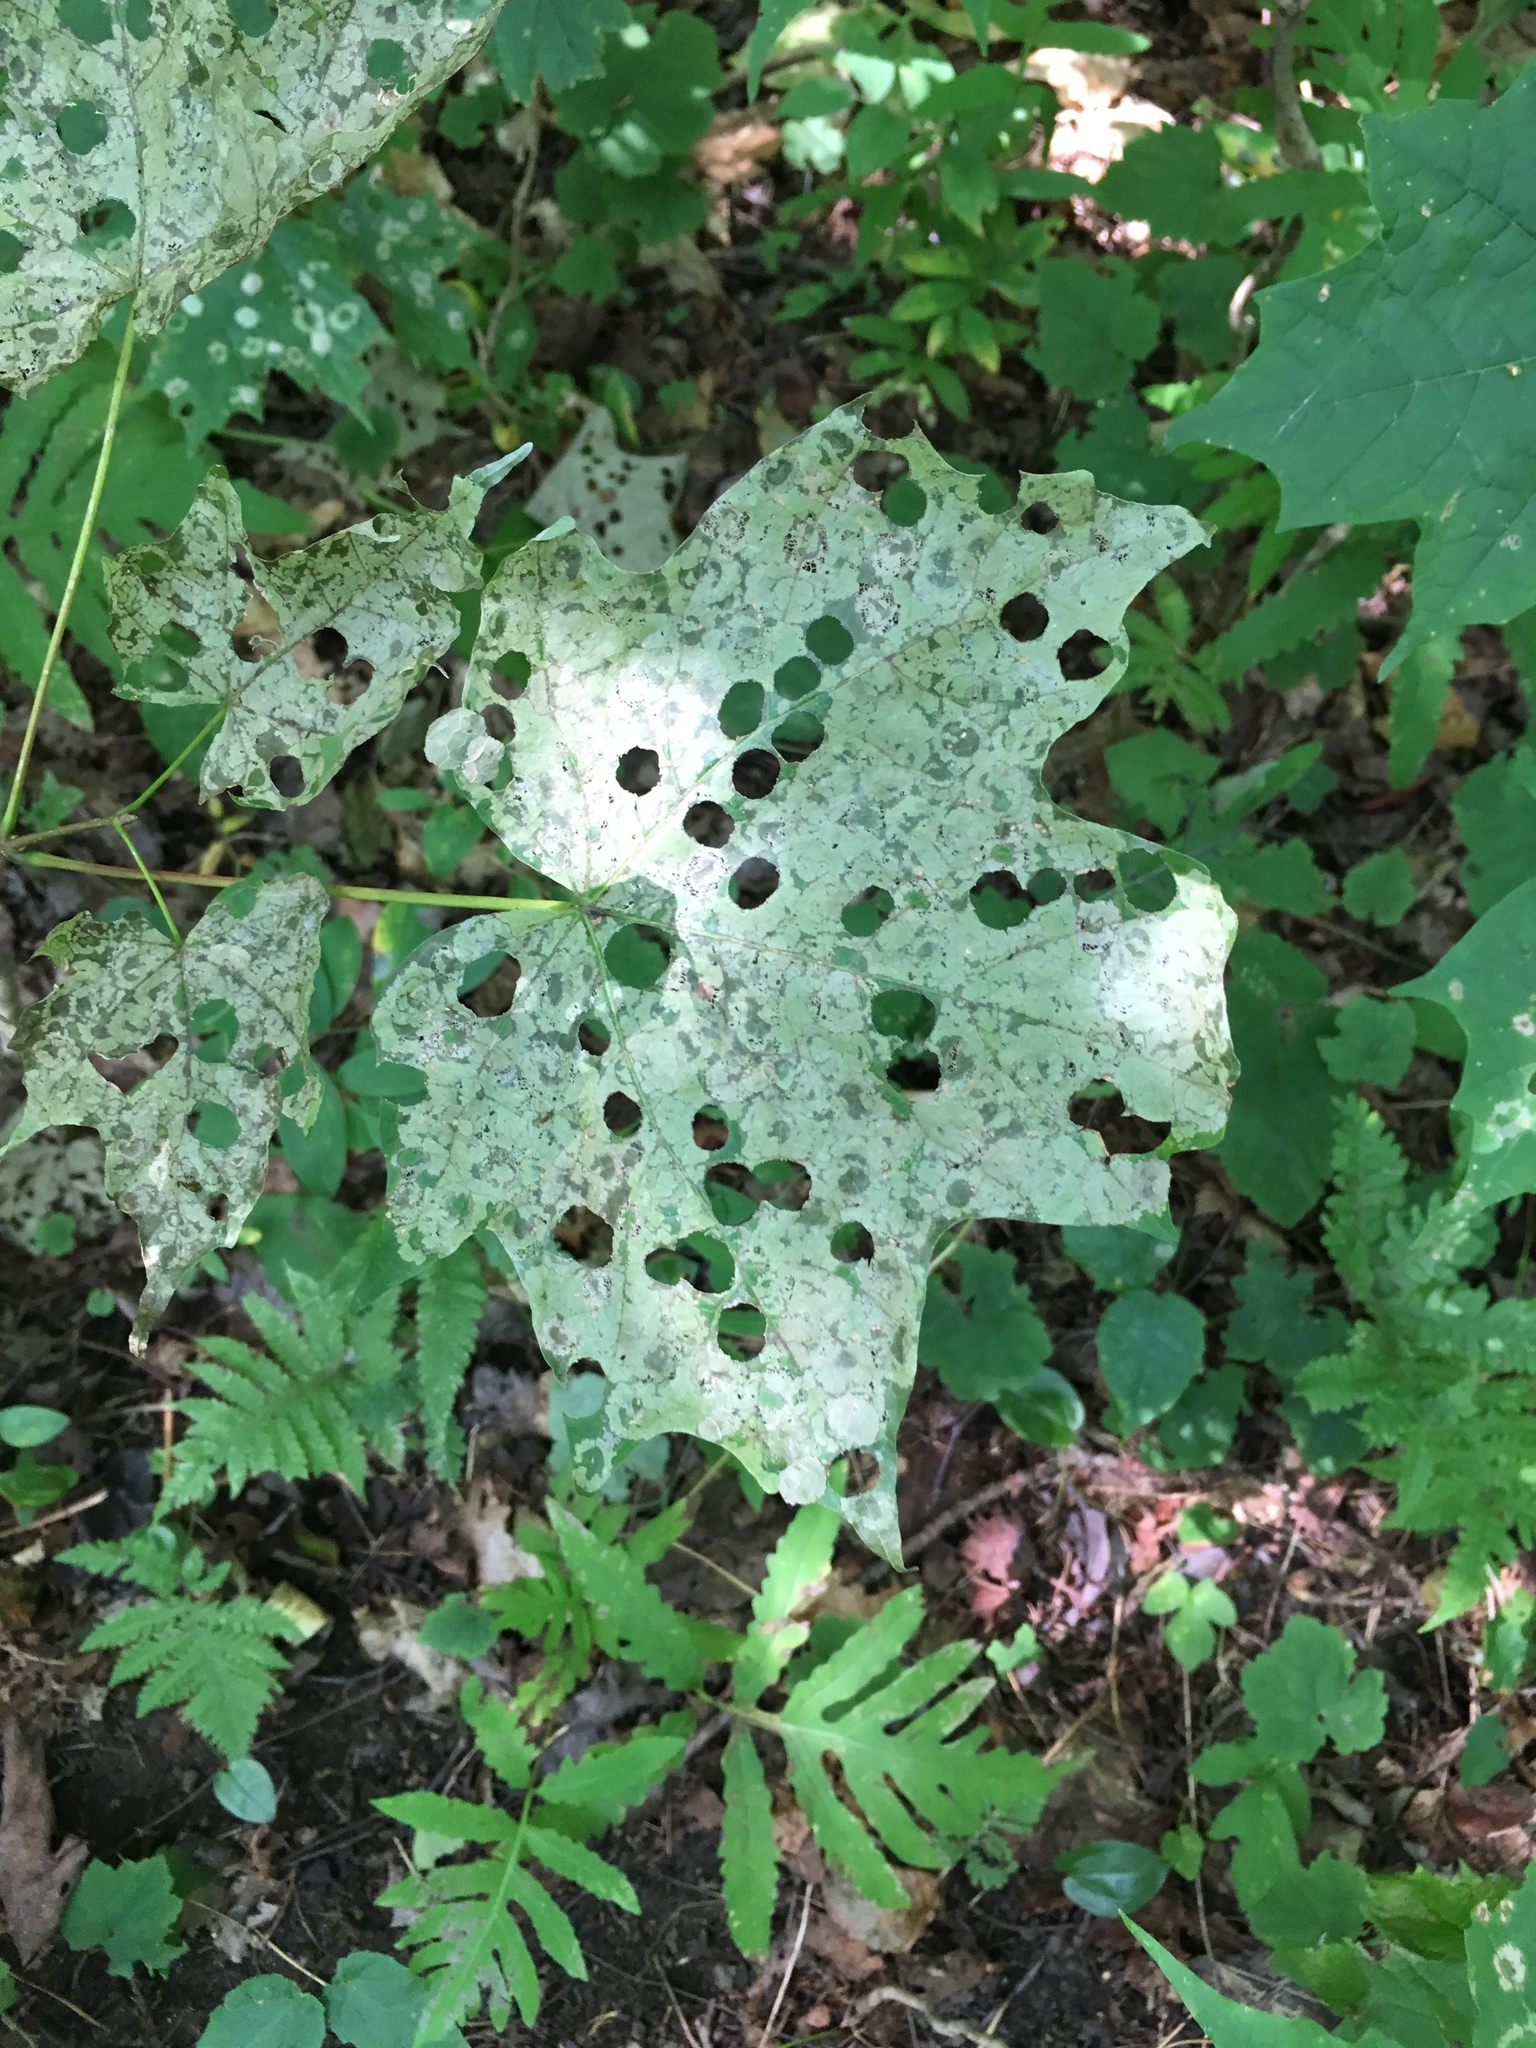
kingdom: Animalia
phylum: Arthropoda
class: Insecta
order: Lepidoptera
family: Incurvariidae
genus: Paraclemensia
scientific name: Paraclemensia acerifoliella
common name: Maple leafcutter
